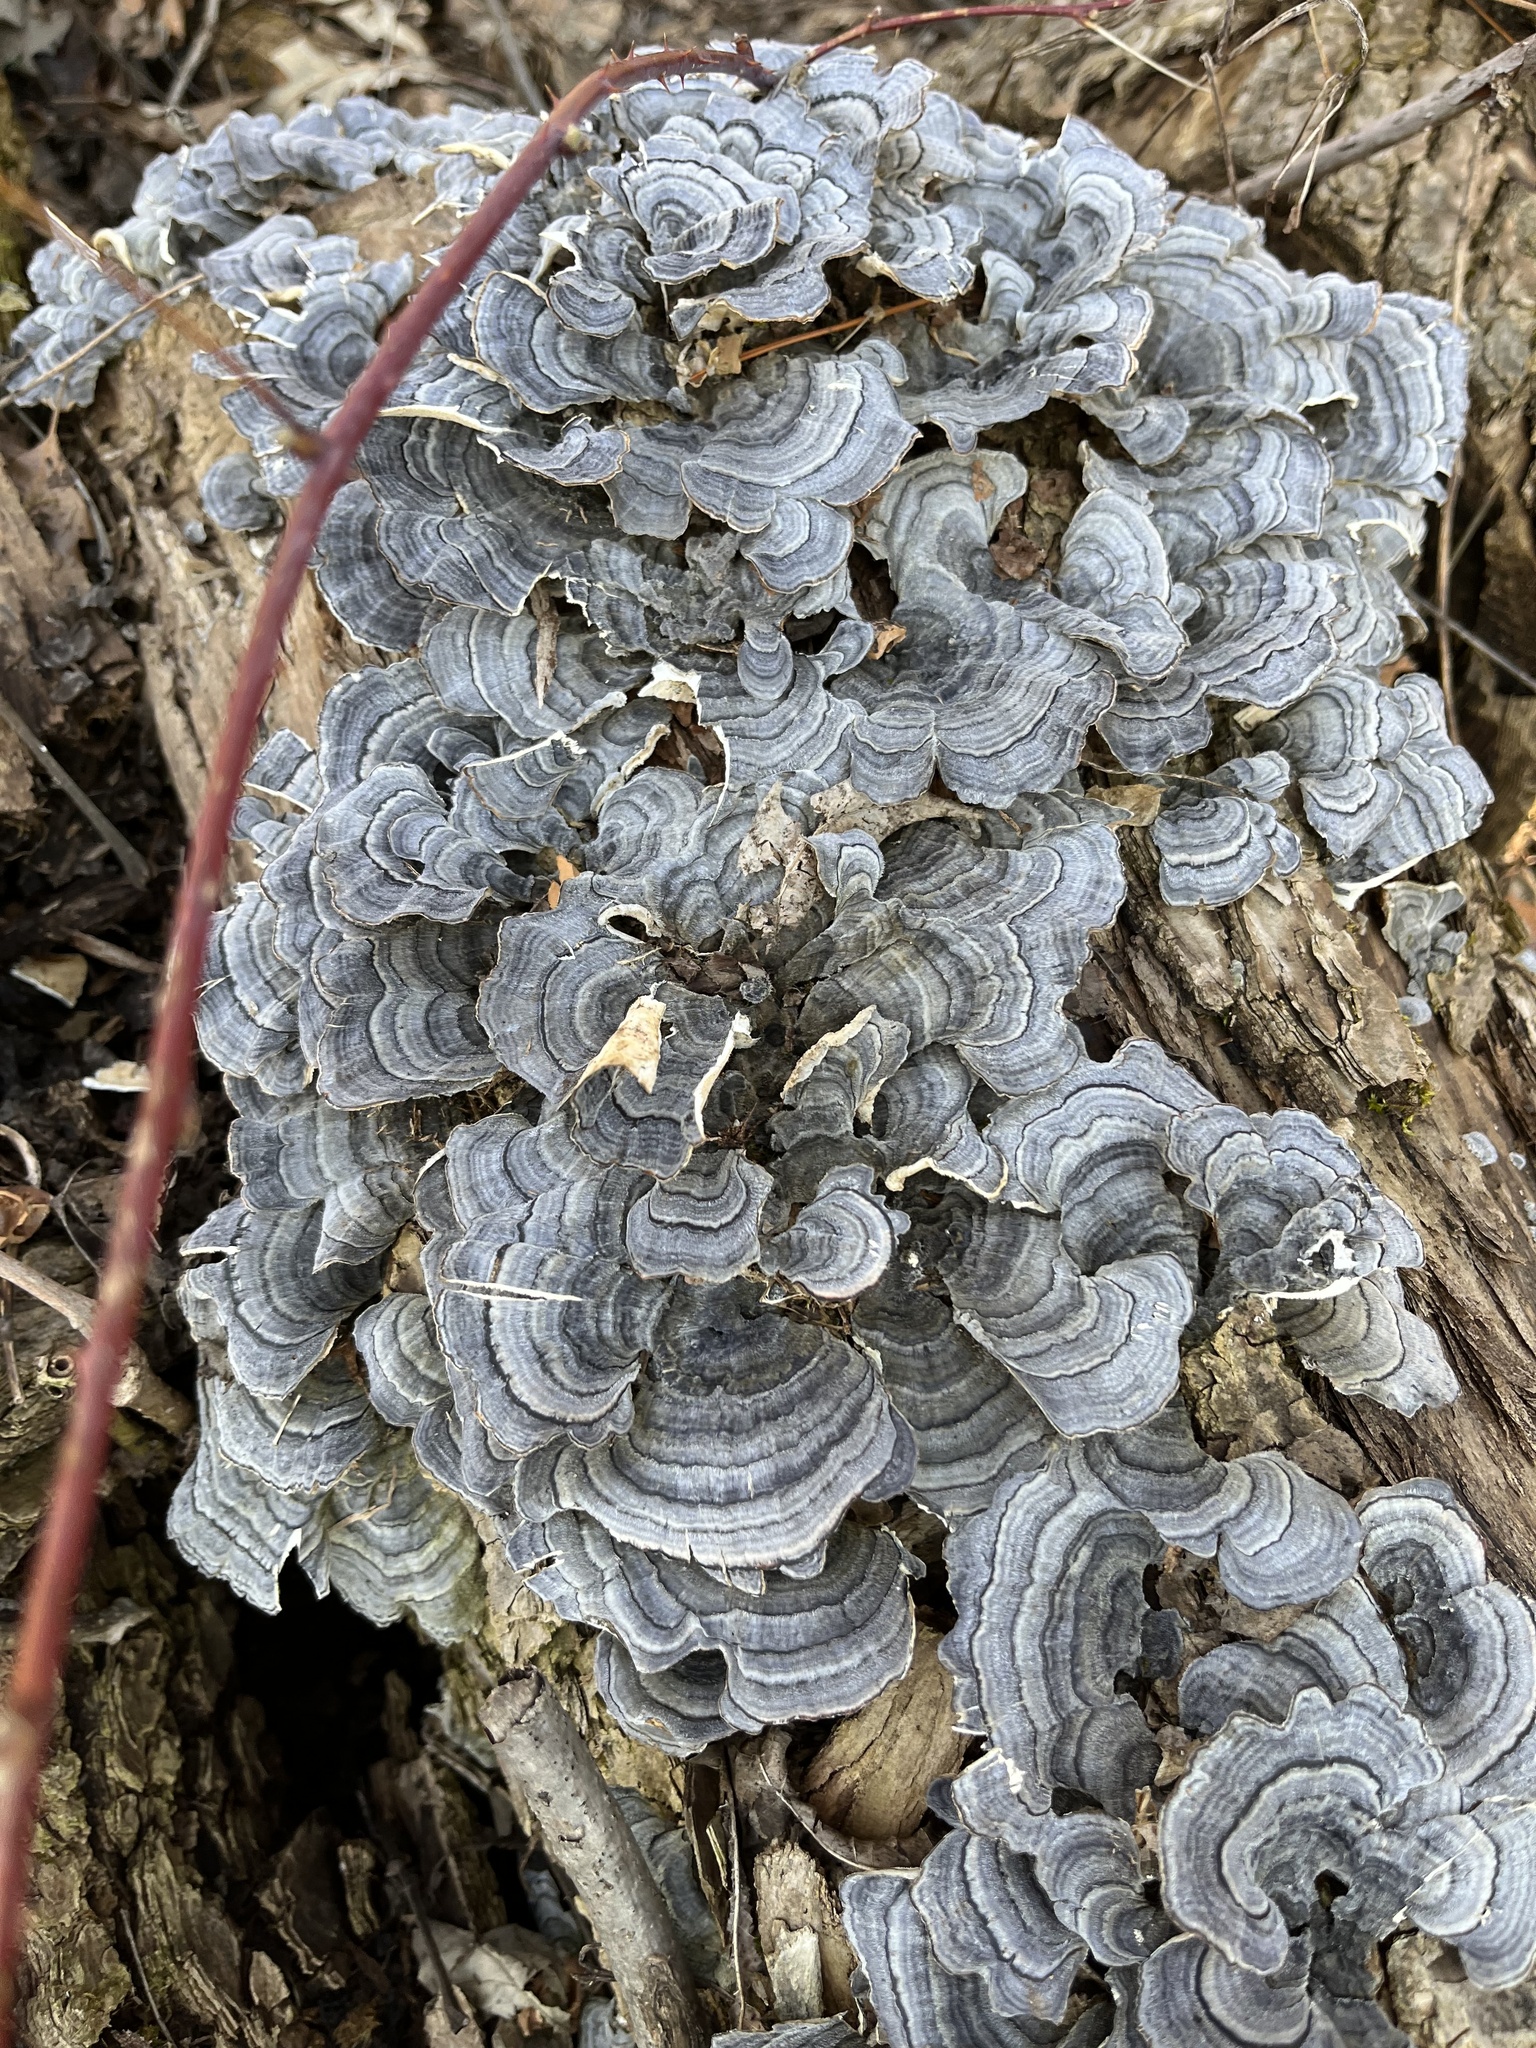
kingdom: Fungi
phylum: Basidiomycota
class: Agaricomycetes
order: Polyporales
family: Polyporaceae
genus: Trametes
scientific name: Trametes versicolor
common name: Turkeytail
